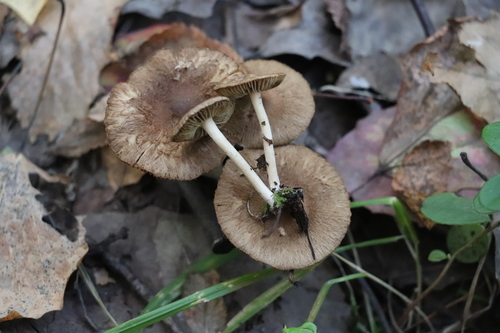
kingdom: Fungi
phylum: Basidiomycota
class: Agaricomycetes
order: Agaricales
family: Inocybaceae
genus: Inocybe
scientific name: Inocybe
